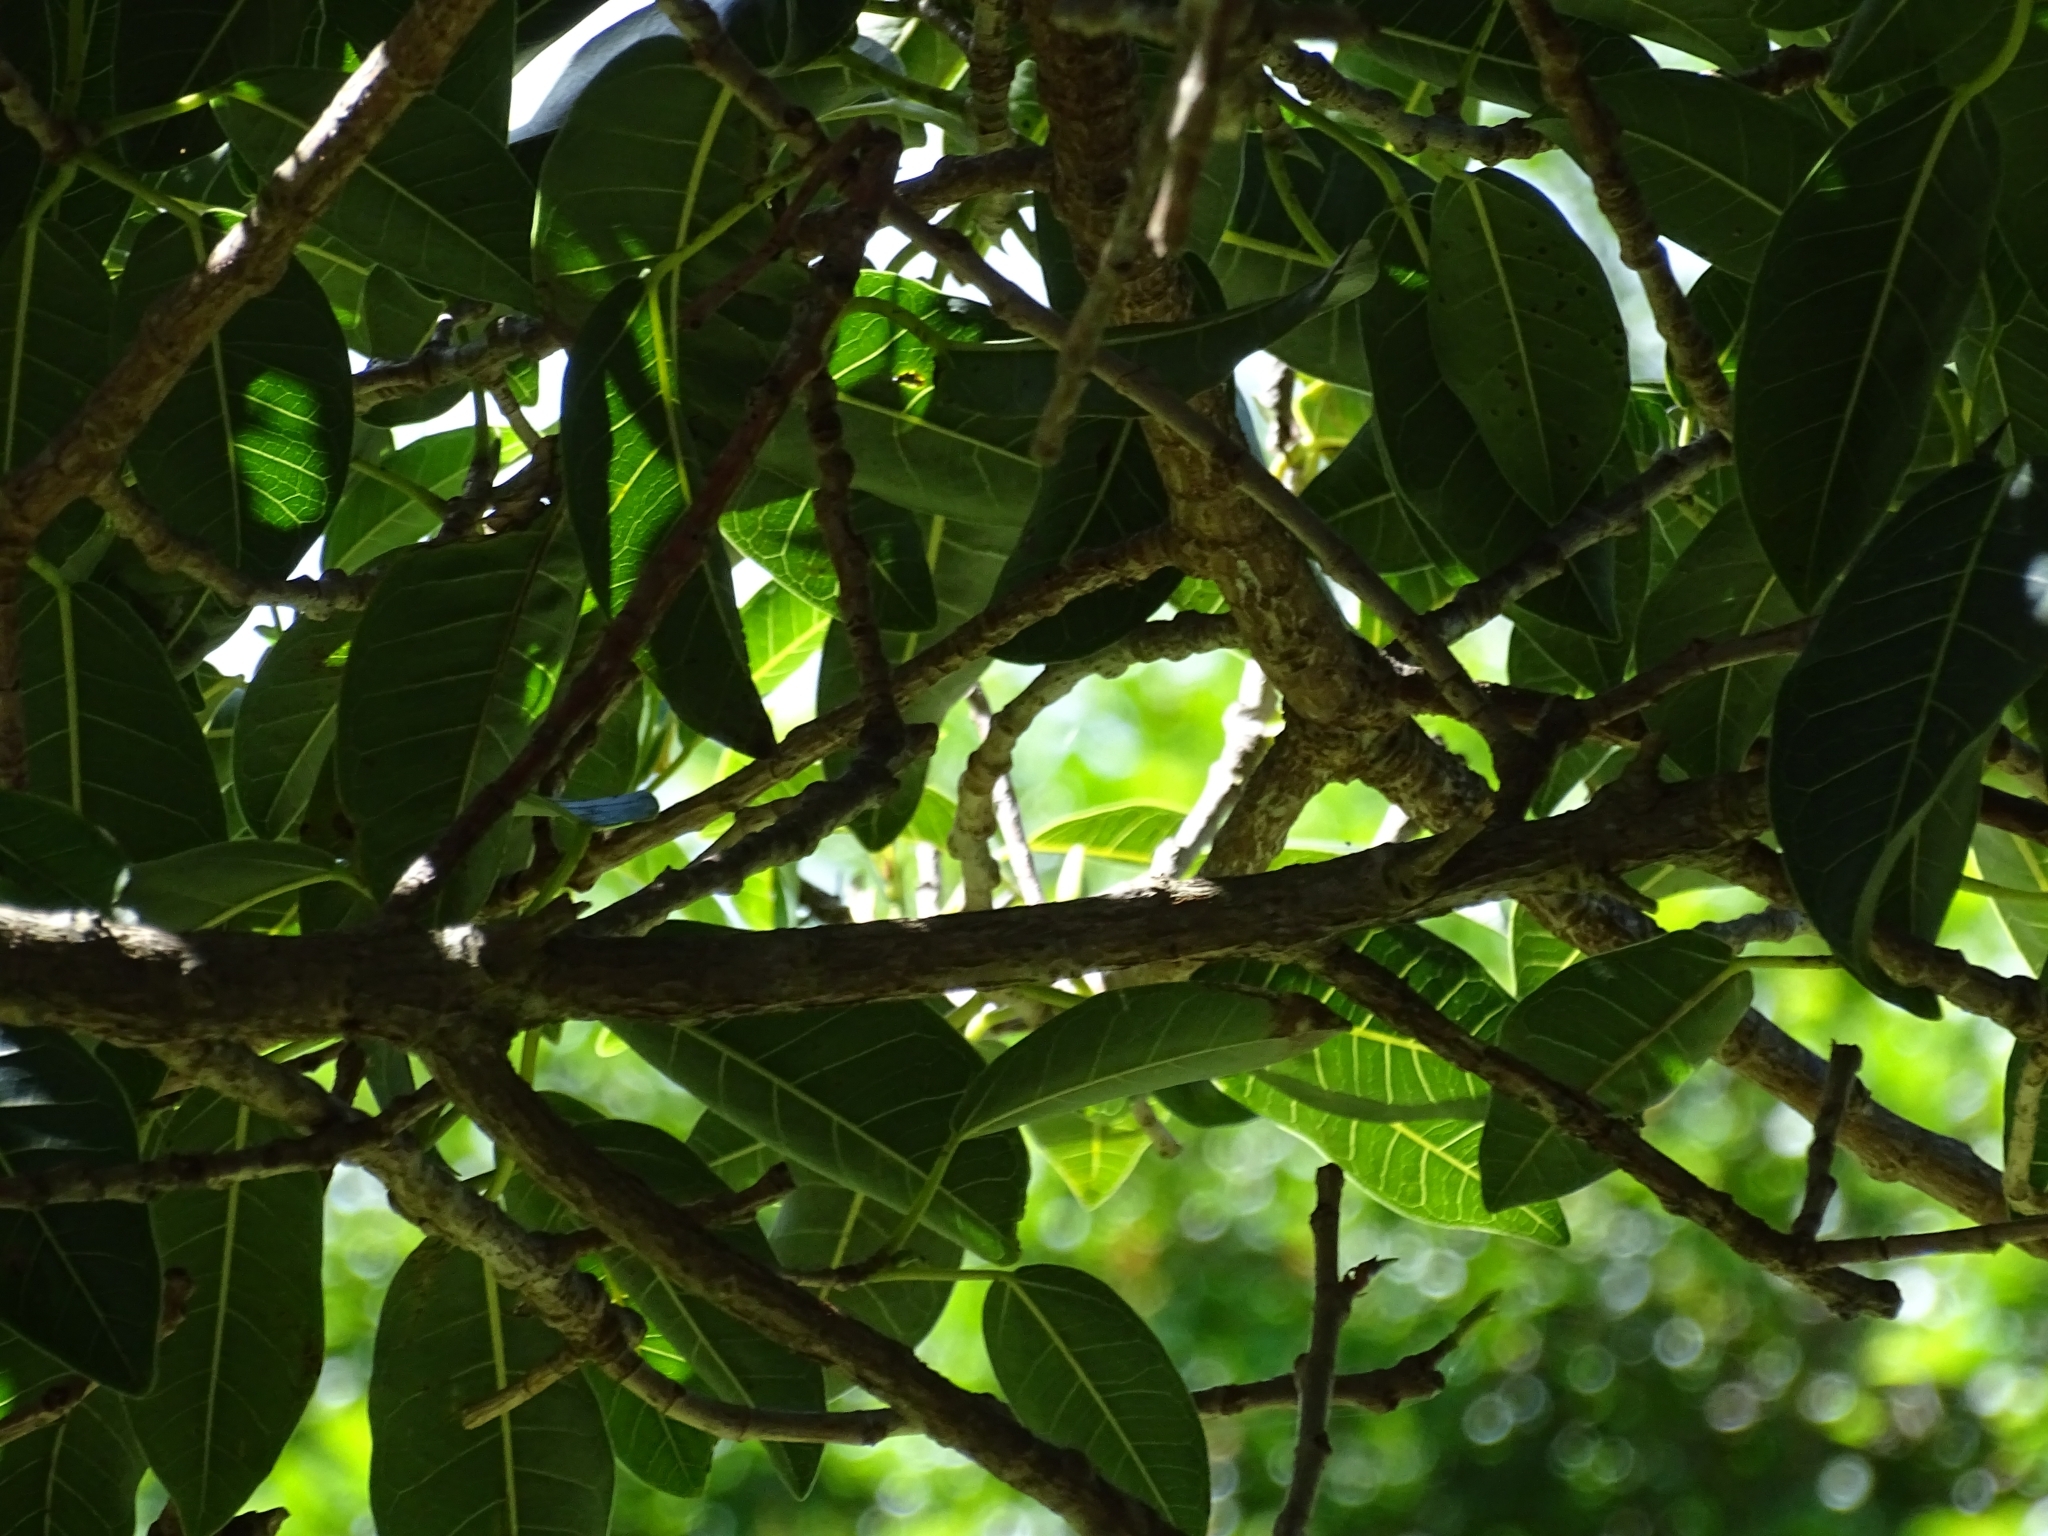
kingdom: Plantae
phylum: Tracheophyta
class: Magnoliopsida
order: Rosales
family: Moraceae
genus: Ficus
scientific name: Ficus luschnathiana
